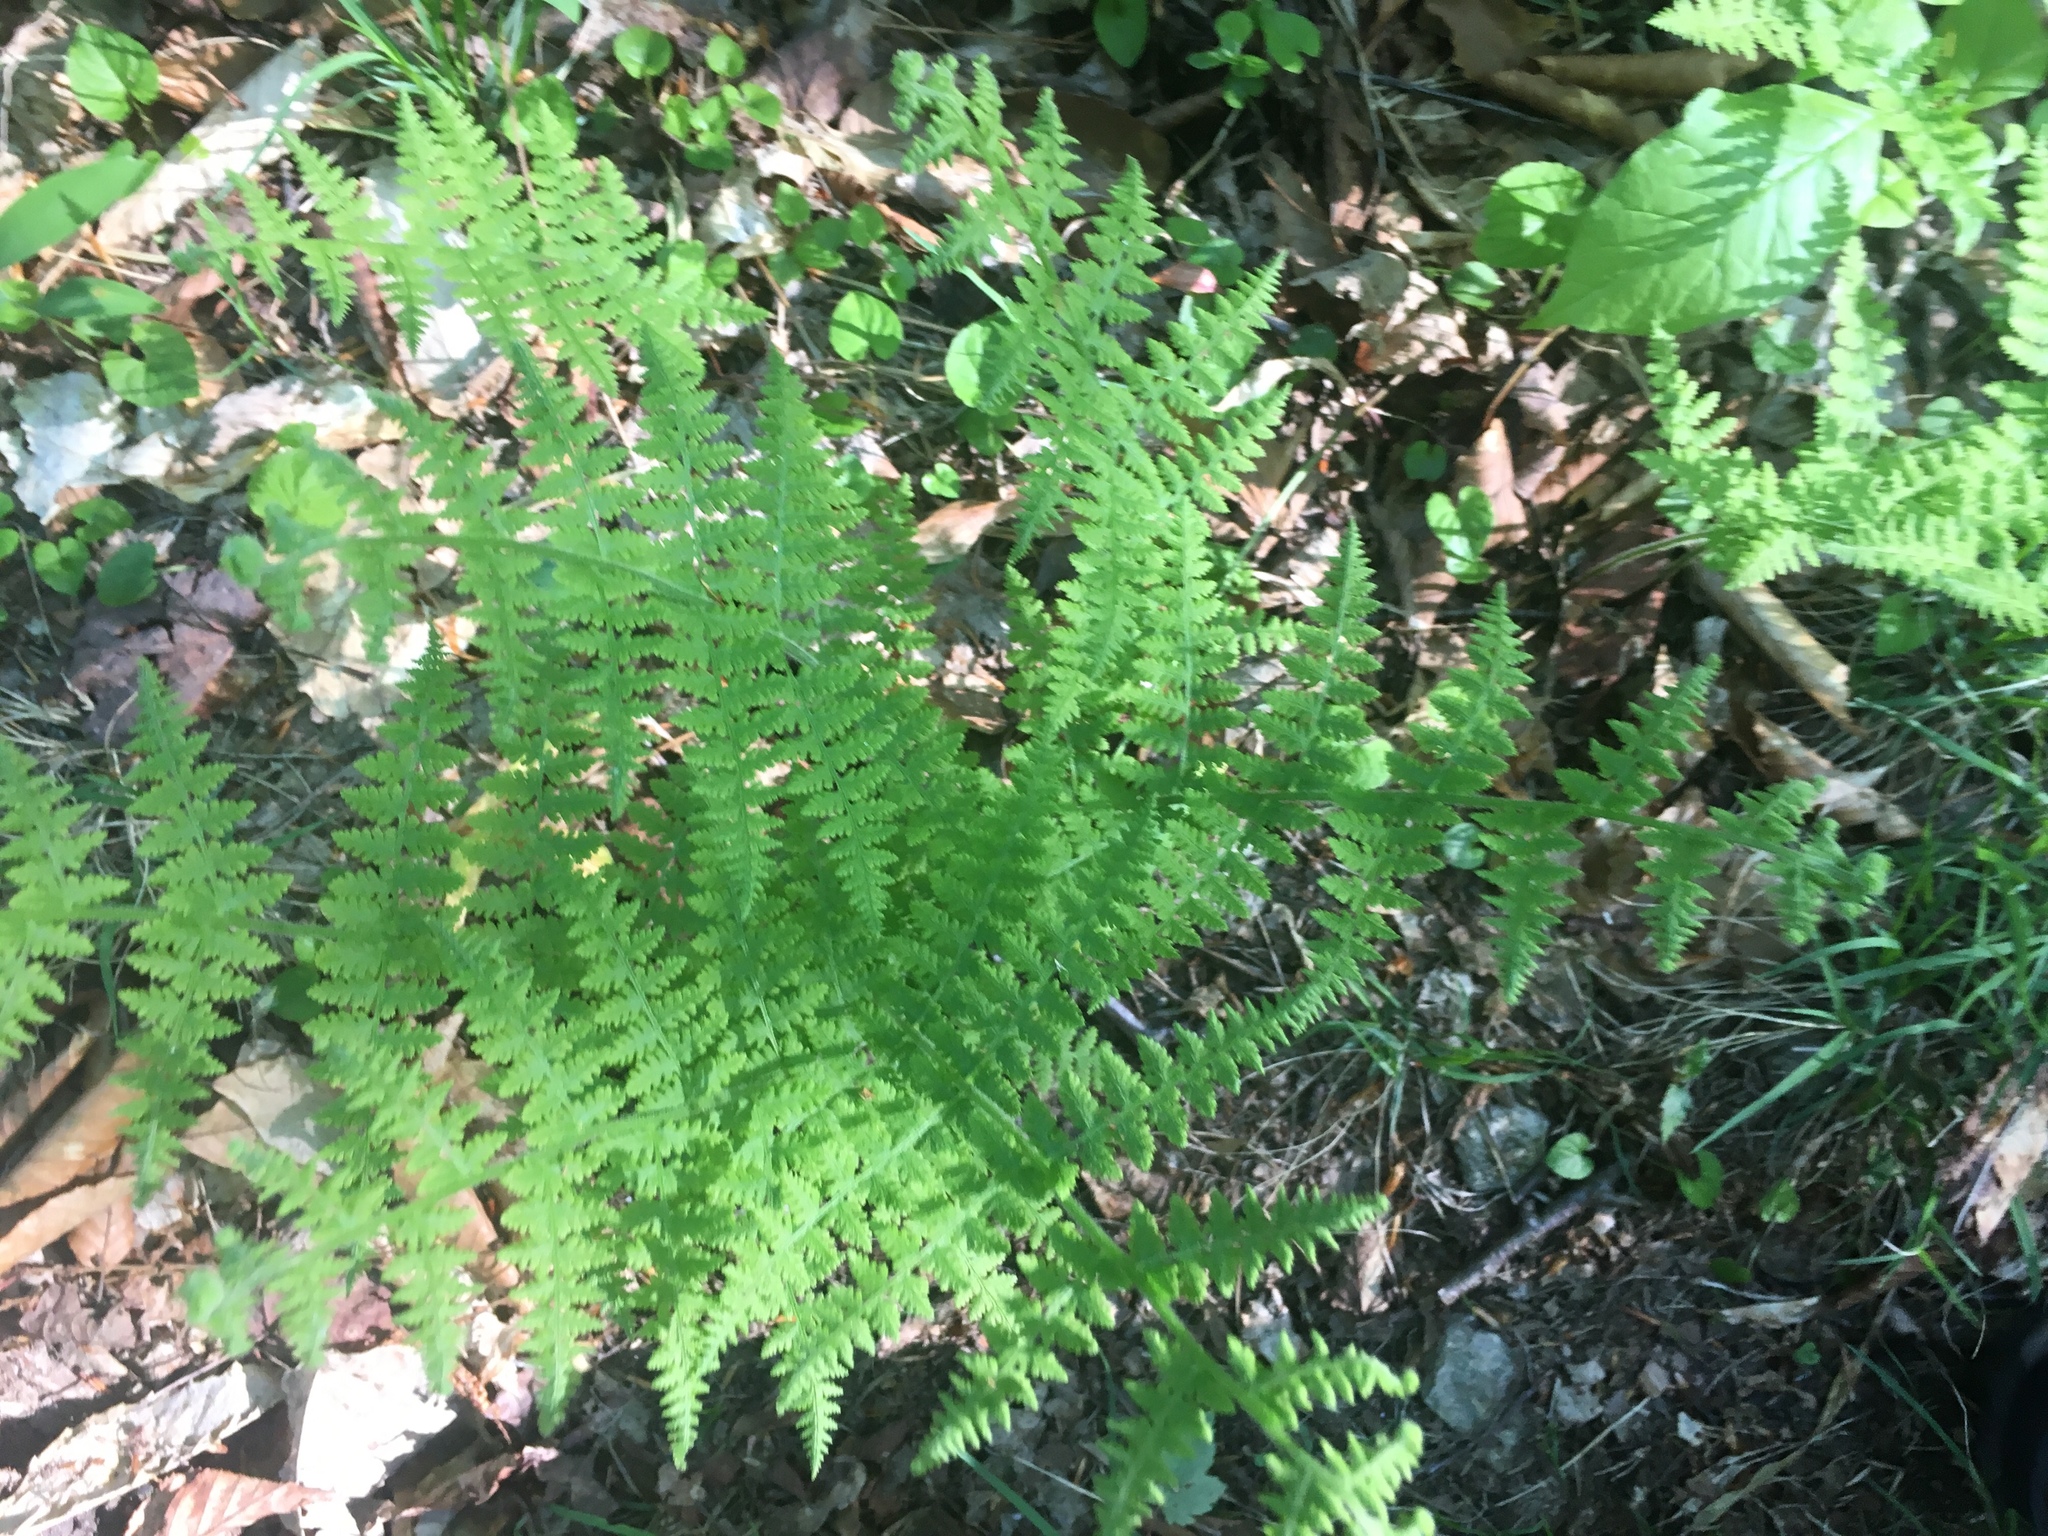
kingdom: Plantae
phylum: Tracheophyta
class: Polypodiopsida
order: Polypodiales
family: Dennstaedtiaceae
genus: Sitobolium
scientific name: Sitobolium punctilobum
